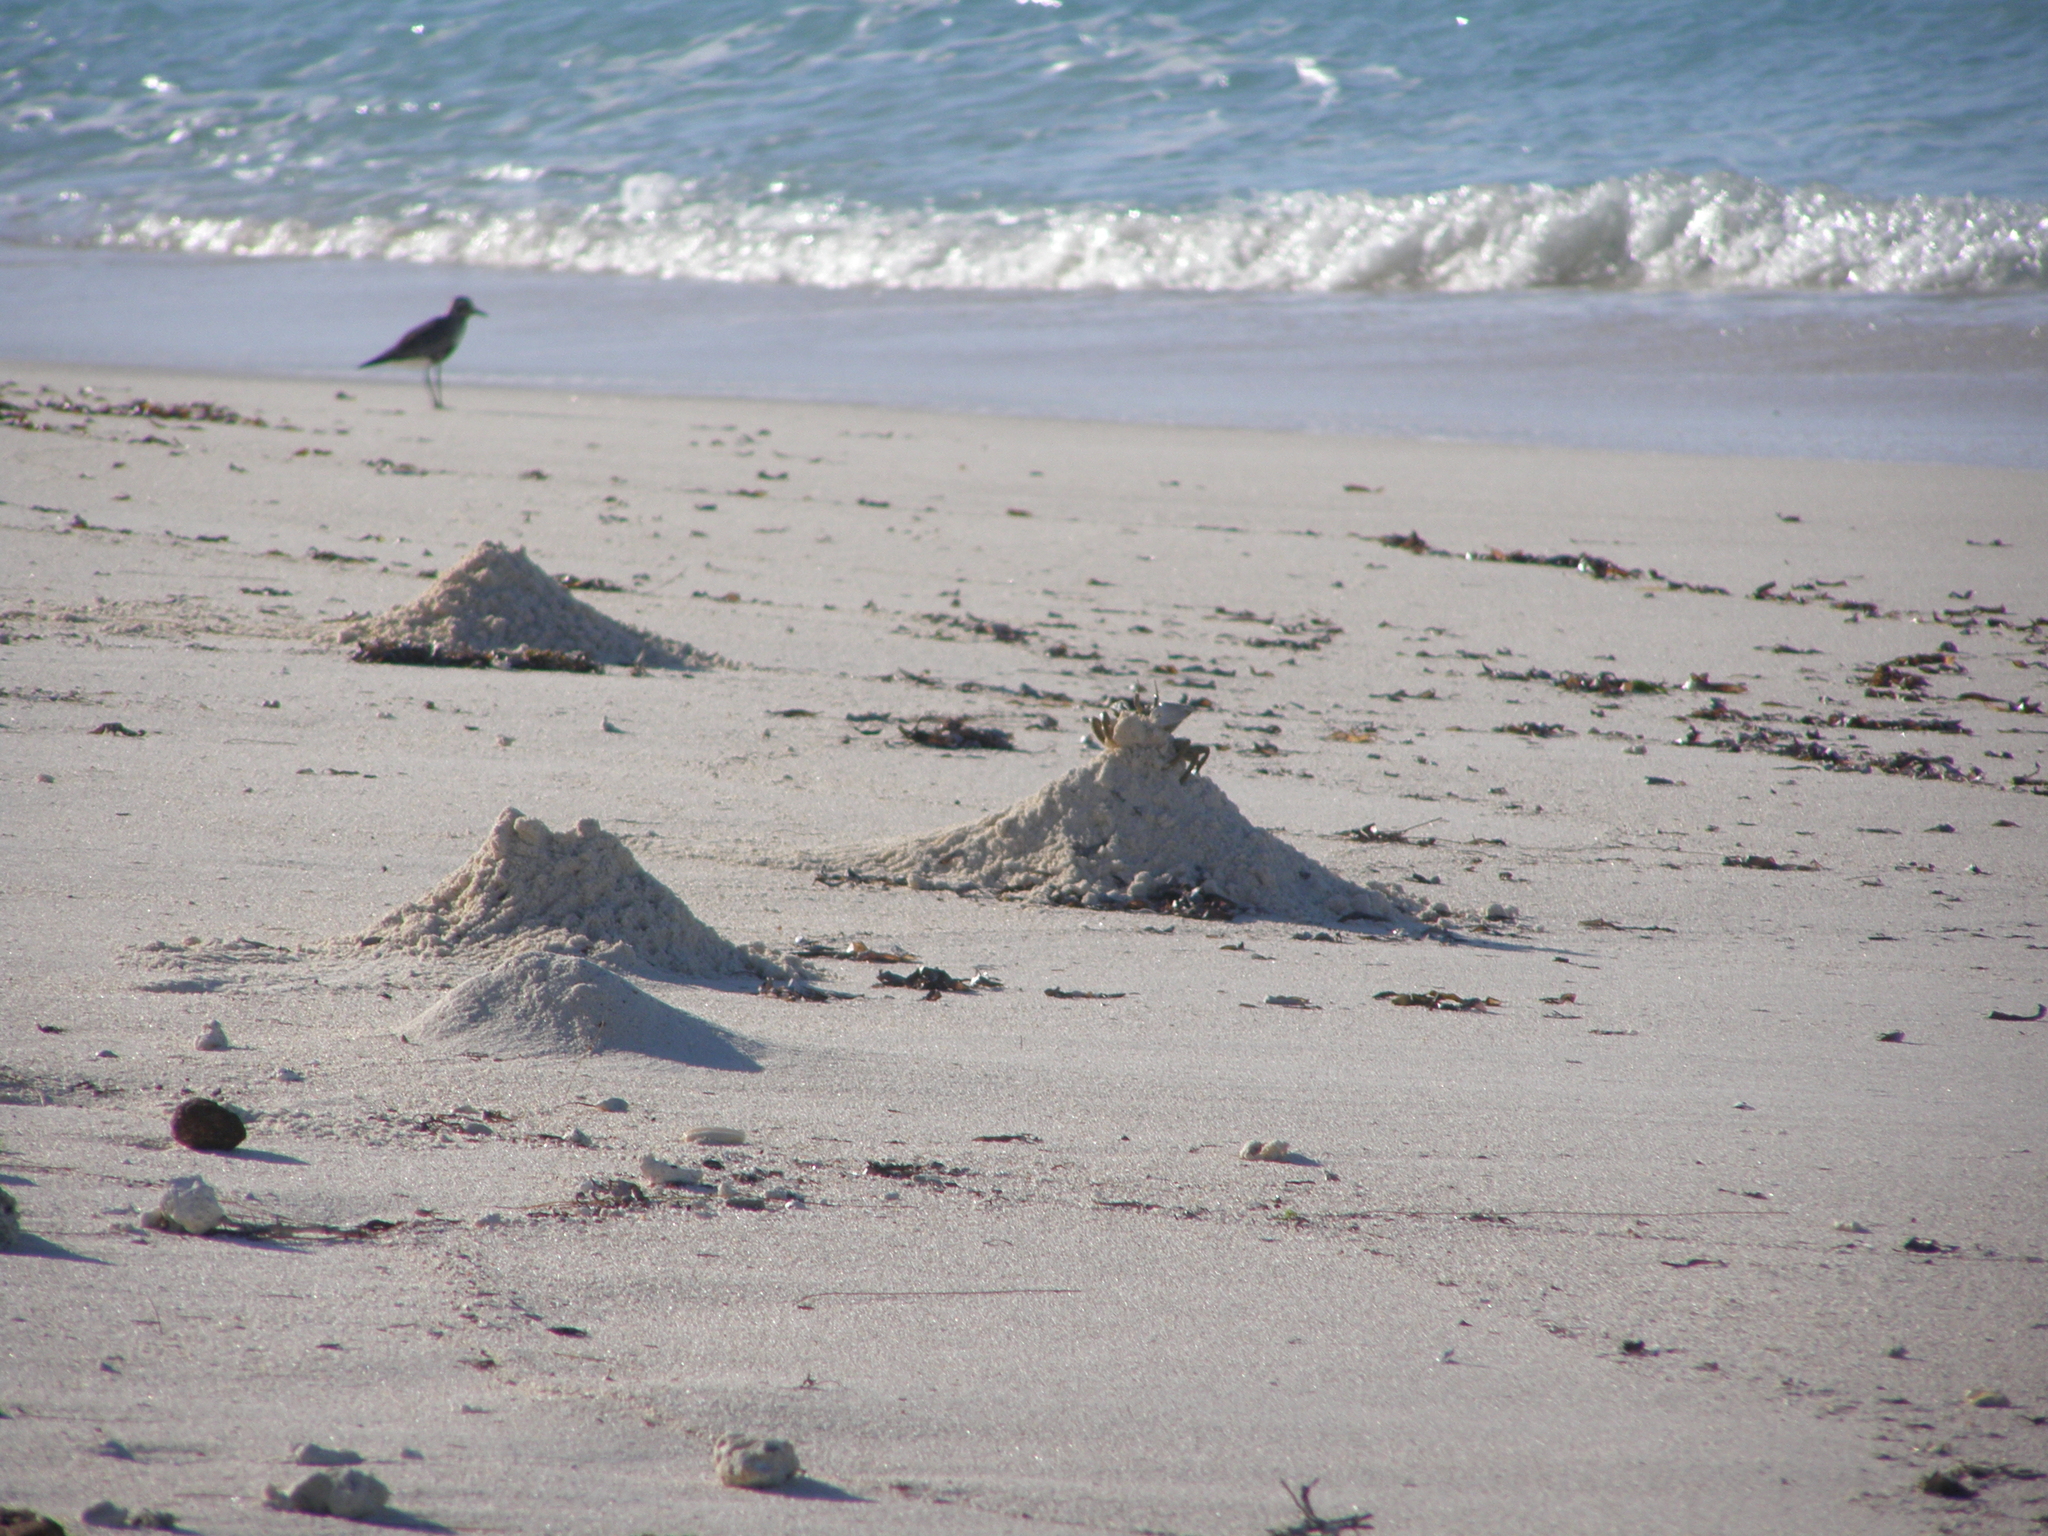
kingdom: Animalia
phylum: Arthropoda
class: Malacostraca
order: Decapoda
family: Ocypodidae
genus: Ocypode
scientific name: Ocypode ceratophthalmus
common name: Indo-pacific ghost crab
